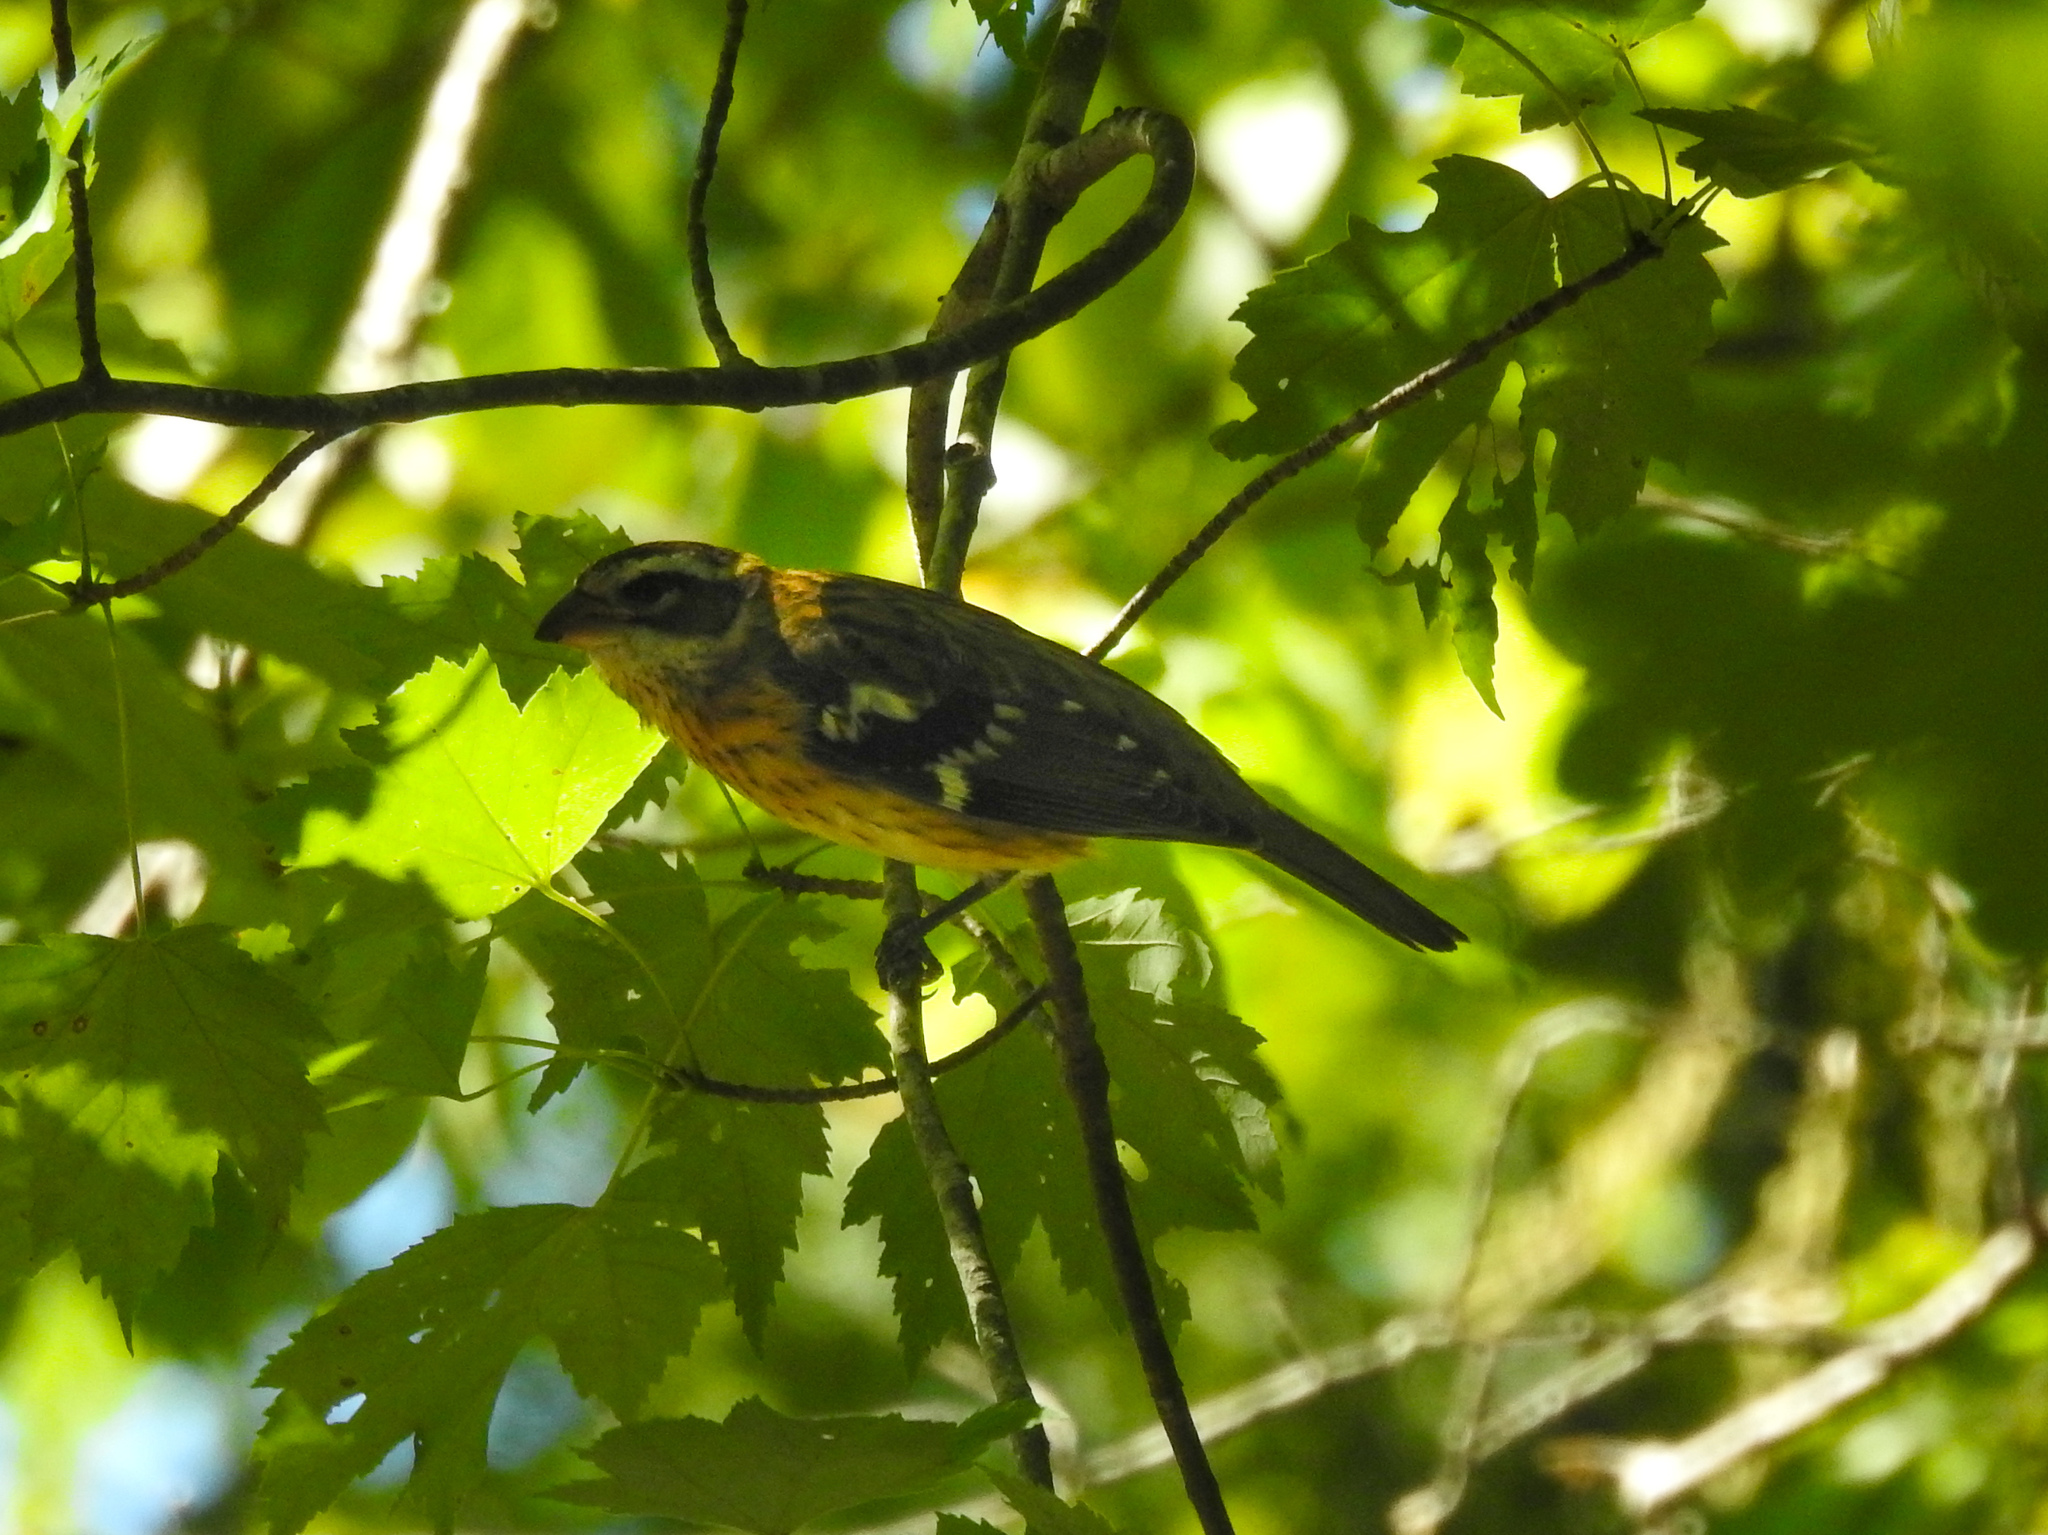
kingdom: Animalia
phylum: Chordata
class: Aves
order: Passeriformes
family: Cardinalidae
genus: Pheucticus
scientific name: Pheucticus ludovicianus
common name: Rose-breasted grosbeak
